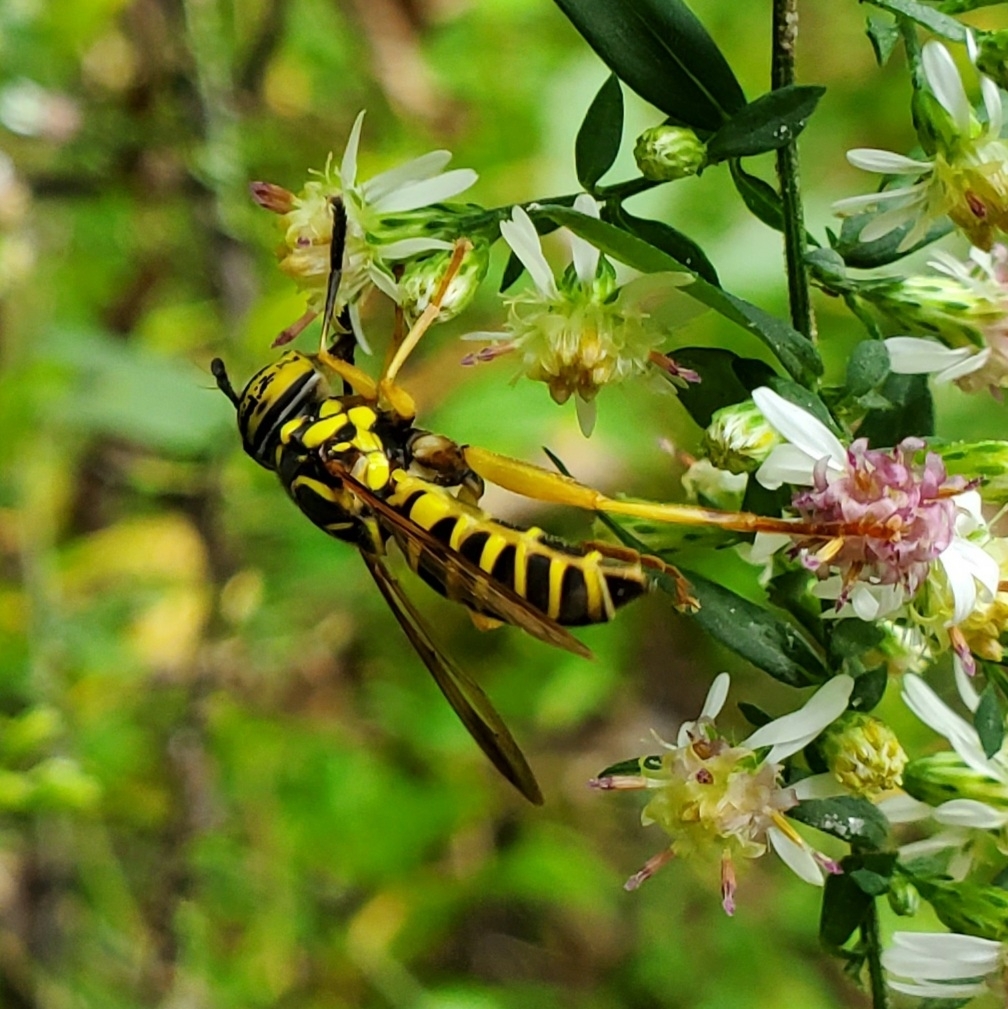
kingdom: Animalia
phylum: Arthropoda
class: Insecta
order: Diptera
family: Syrphidae
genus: Spilomyia
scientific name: Spilomyia longicornis
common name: Eastern hornet fly
